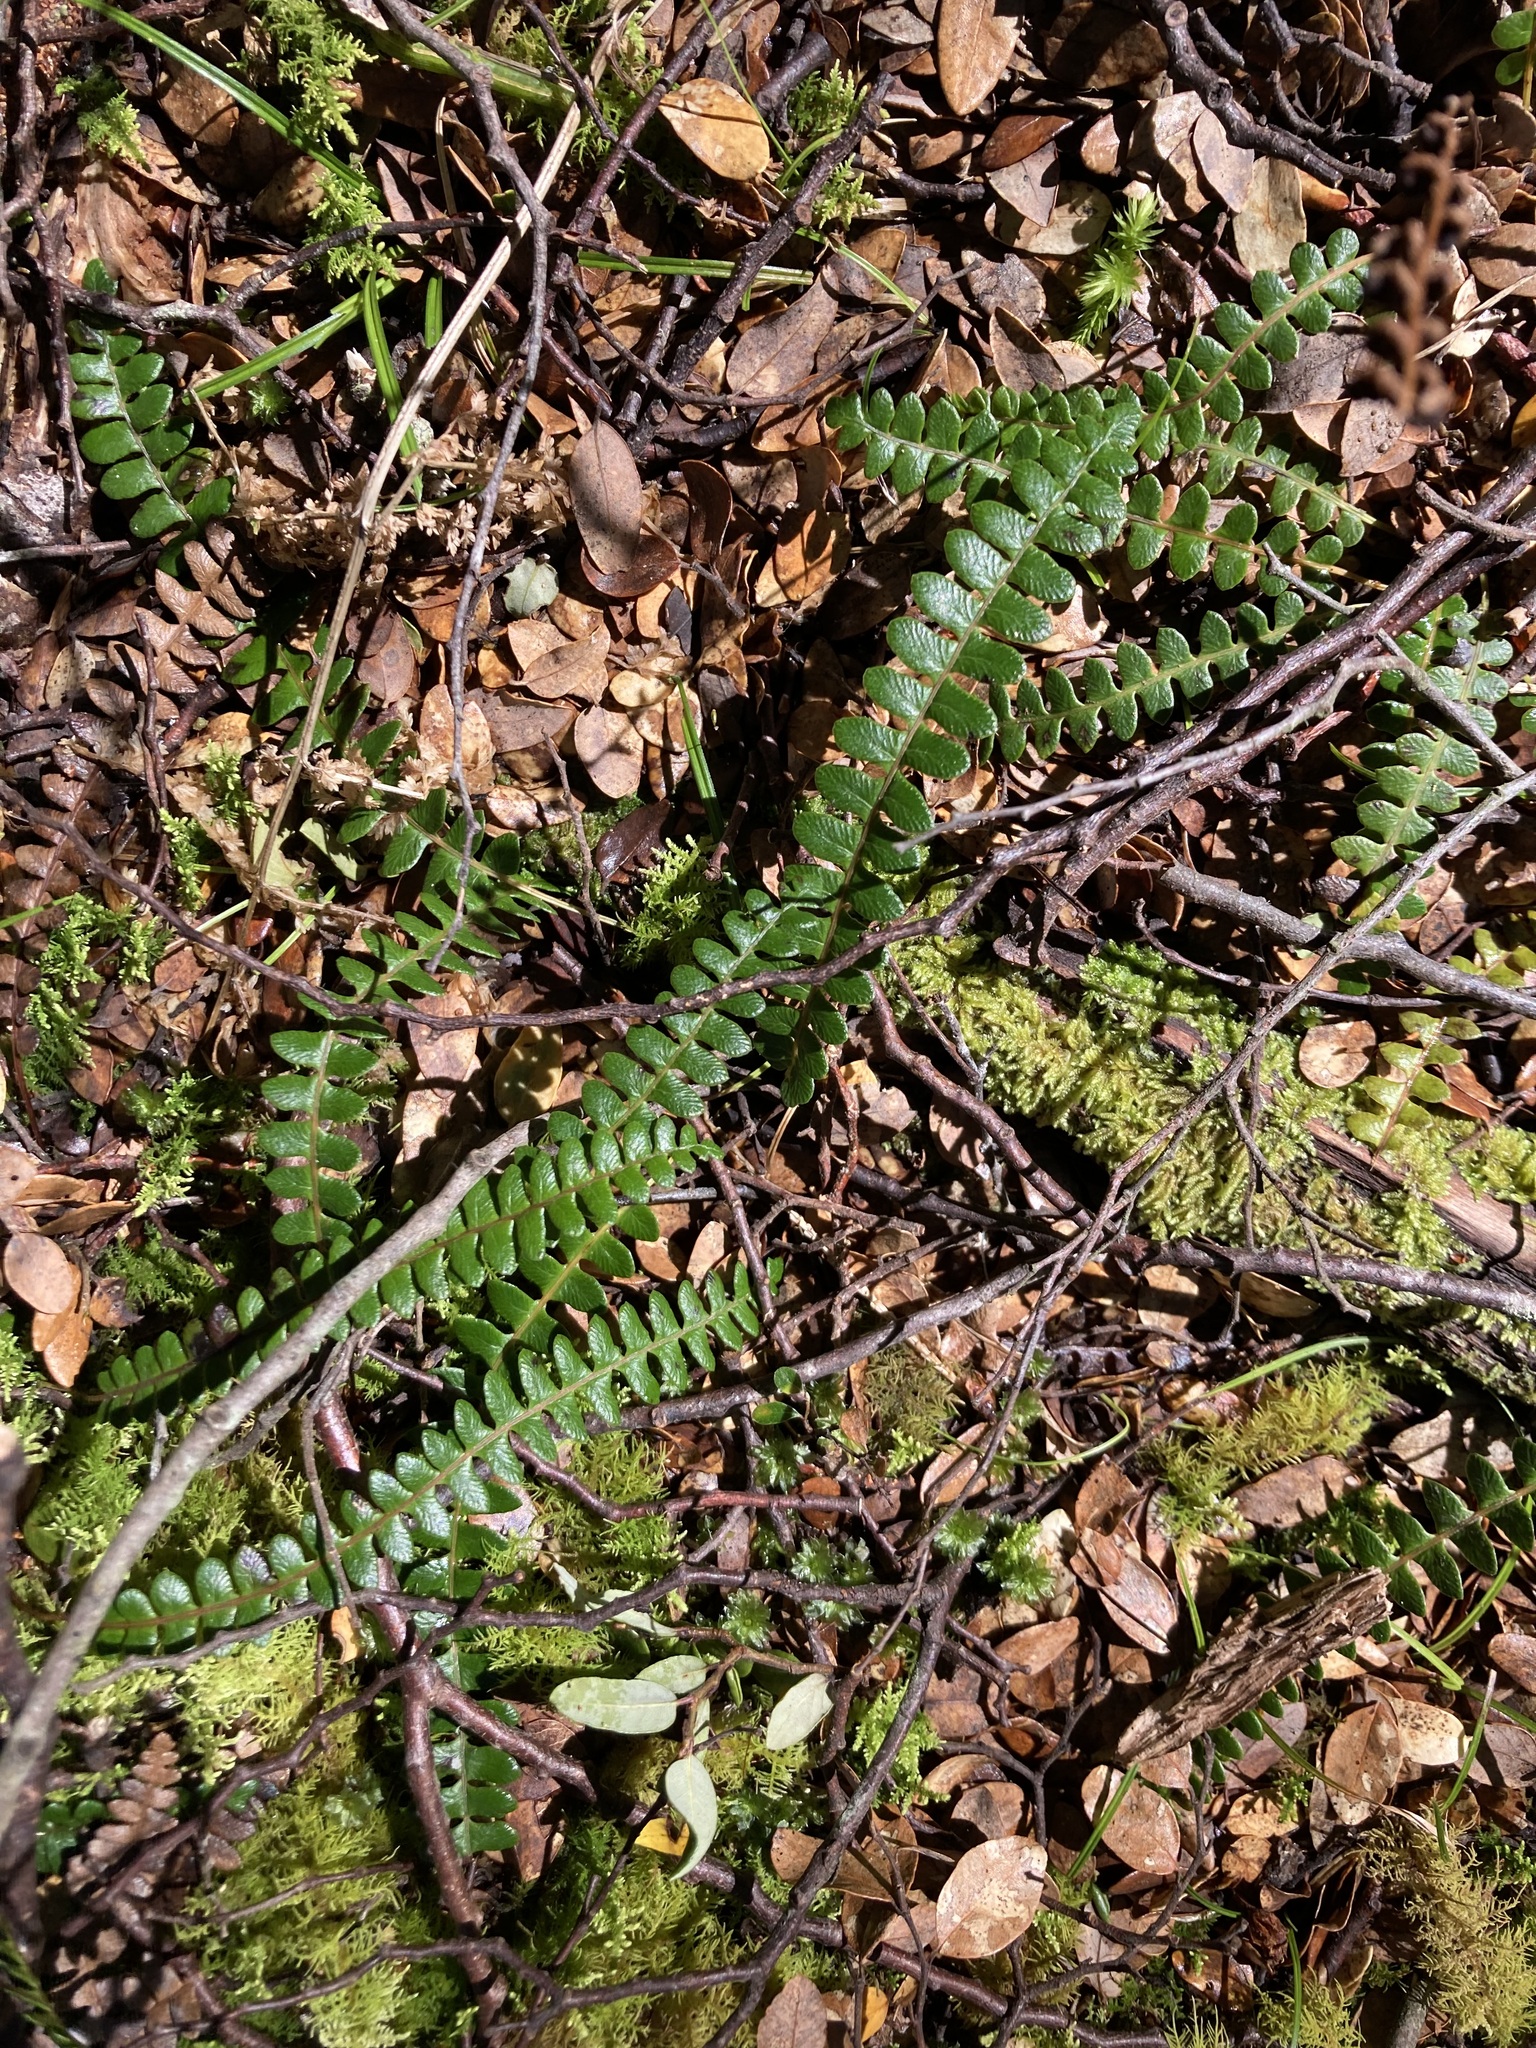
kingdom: Plantae
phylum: Tracheophyta
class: Polypodiopsida
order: Polypodiales
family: Blechnaceae
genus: Austroblechnum
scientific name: Austroblechnum penna-marina
